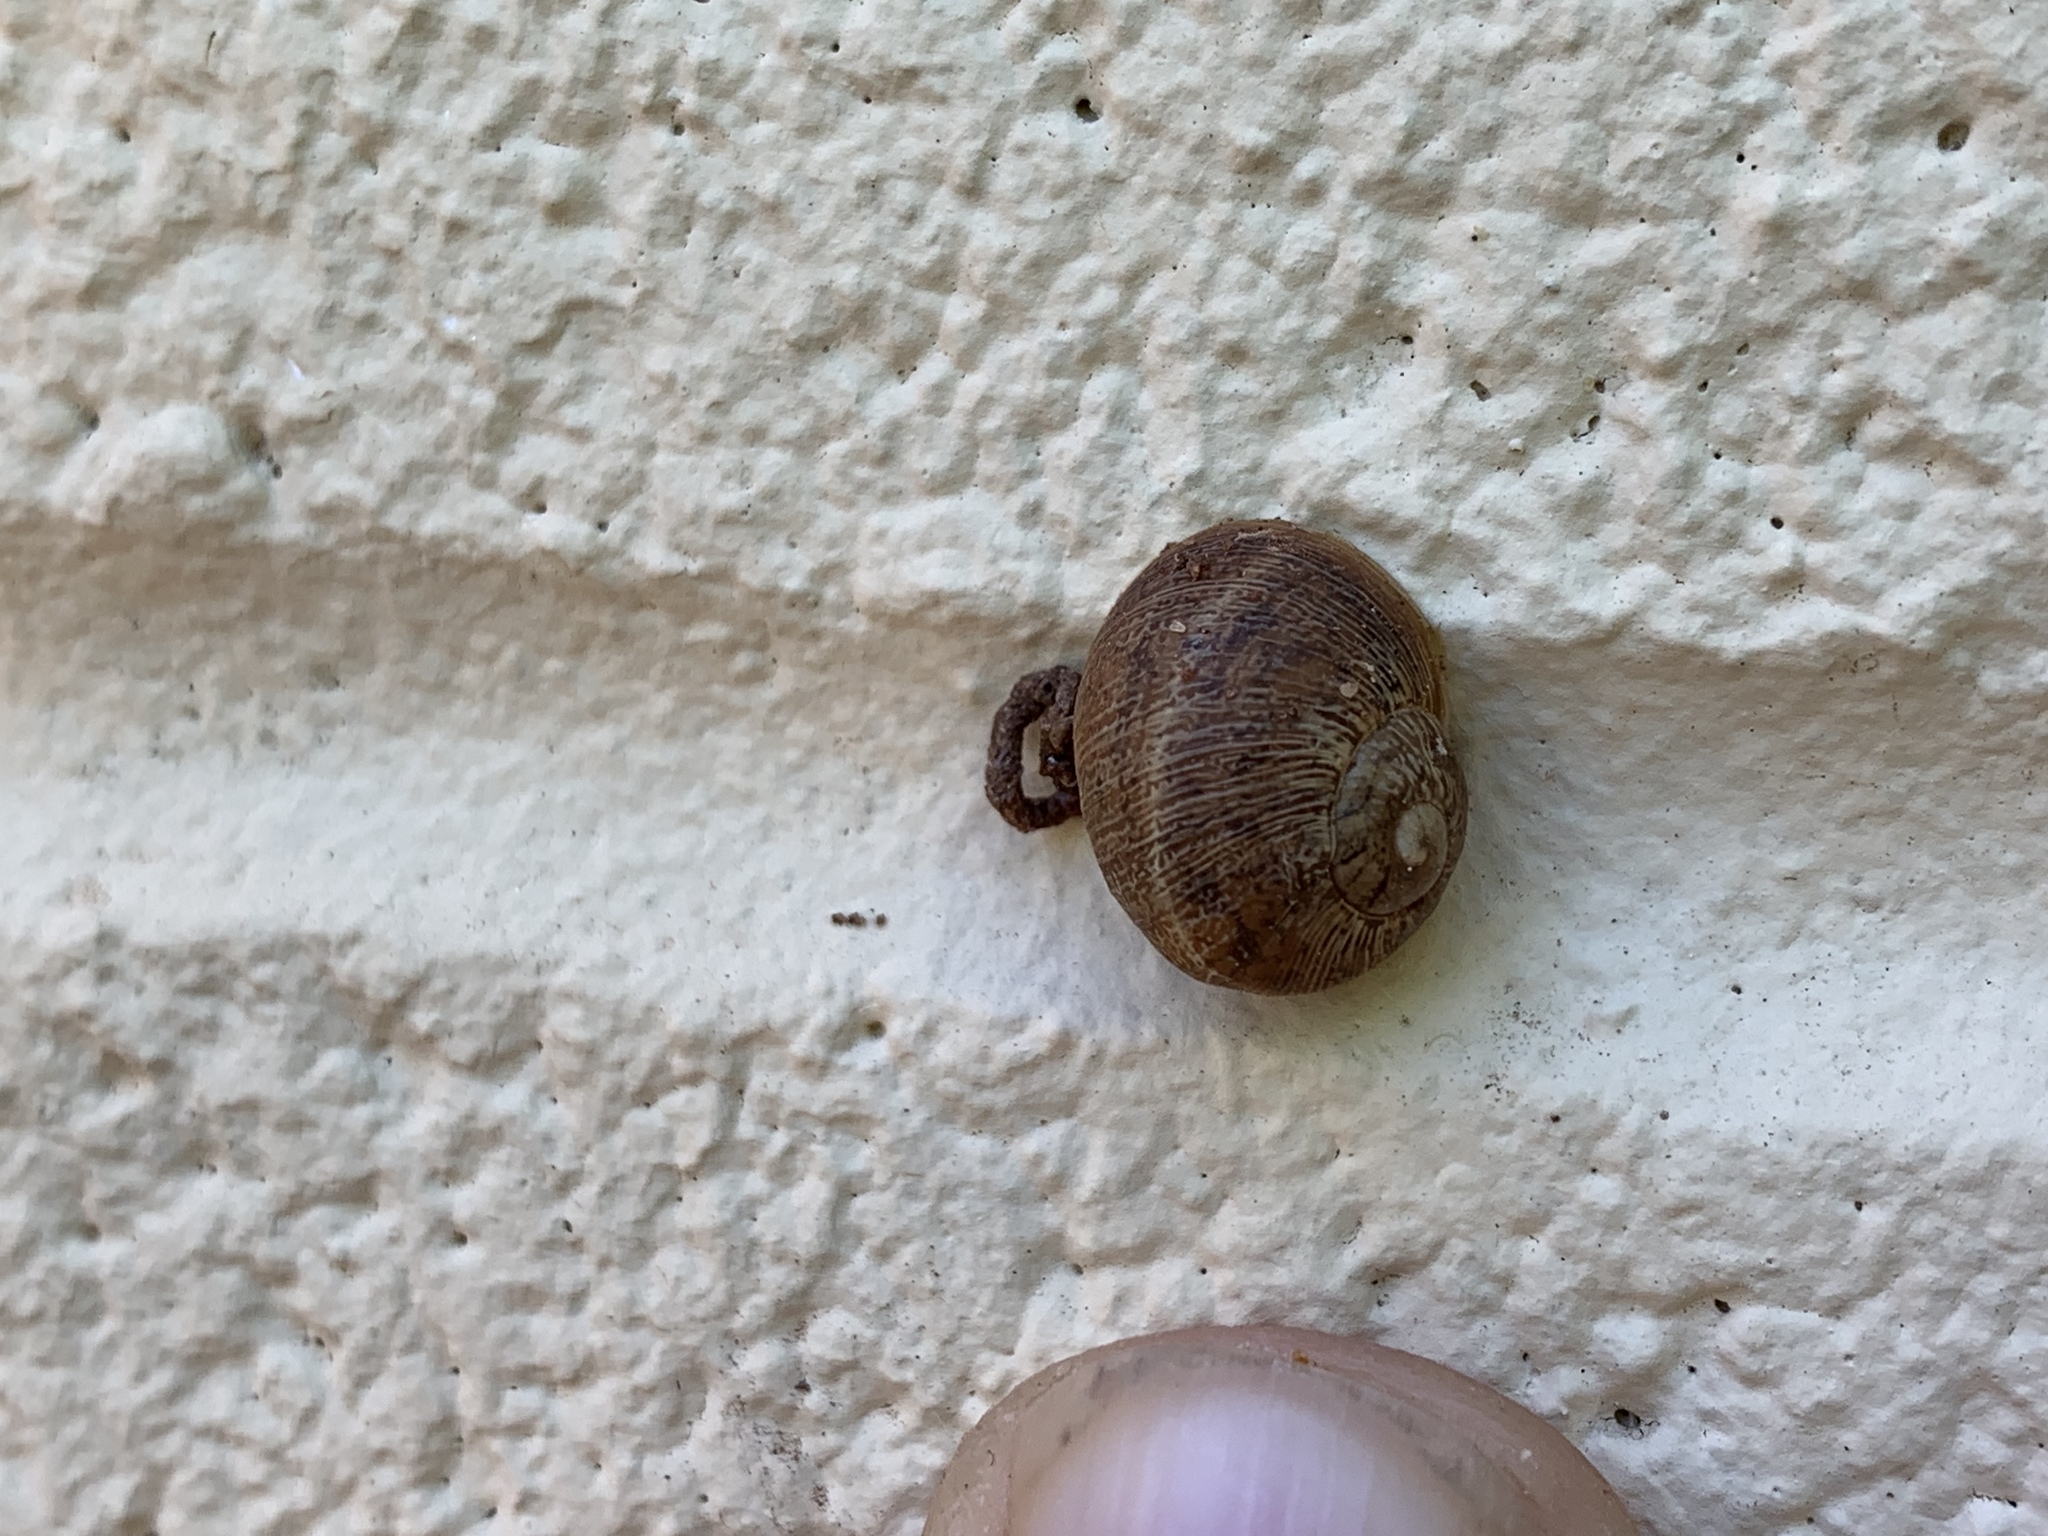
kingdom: Animalia
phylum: Mollusca
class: Gastropoda
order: Stylommatophora
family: Helicidae
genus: Cornu
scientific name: Cornu aspersum
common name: Brown garden snail
